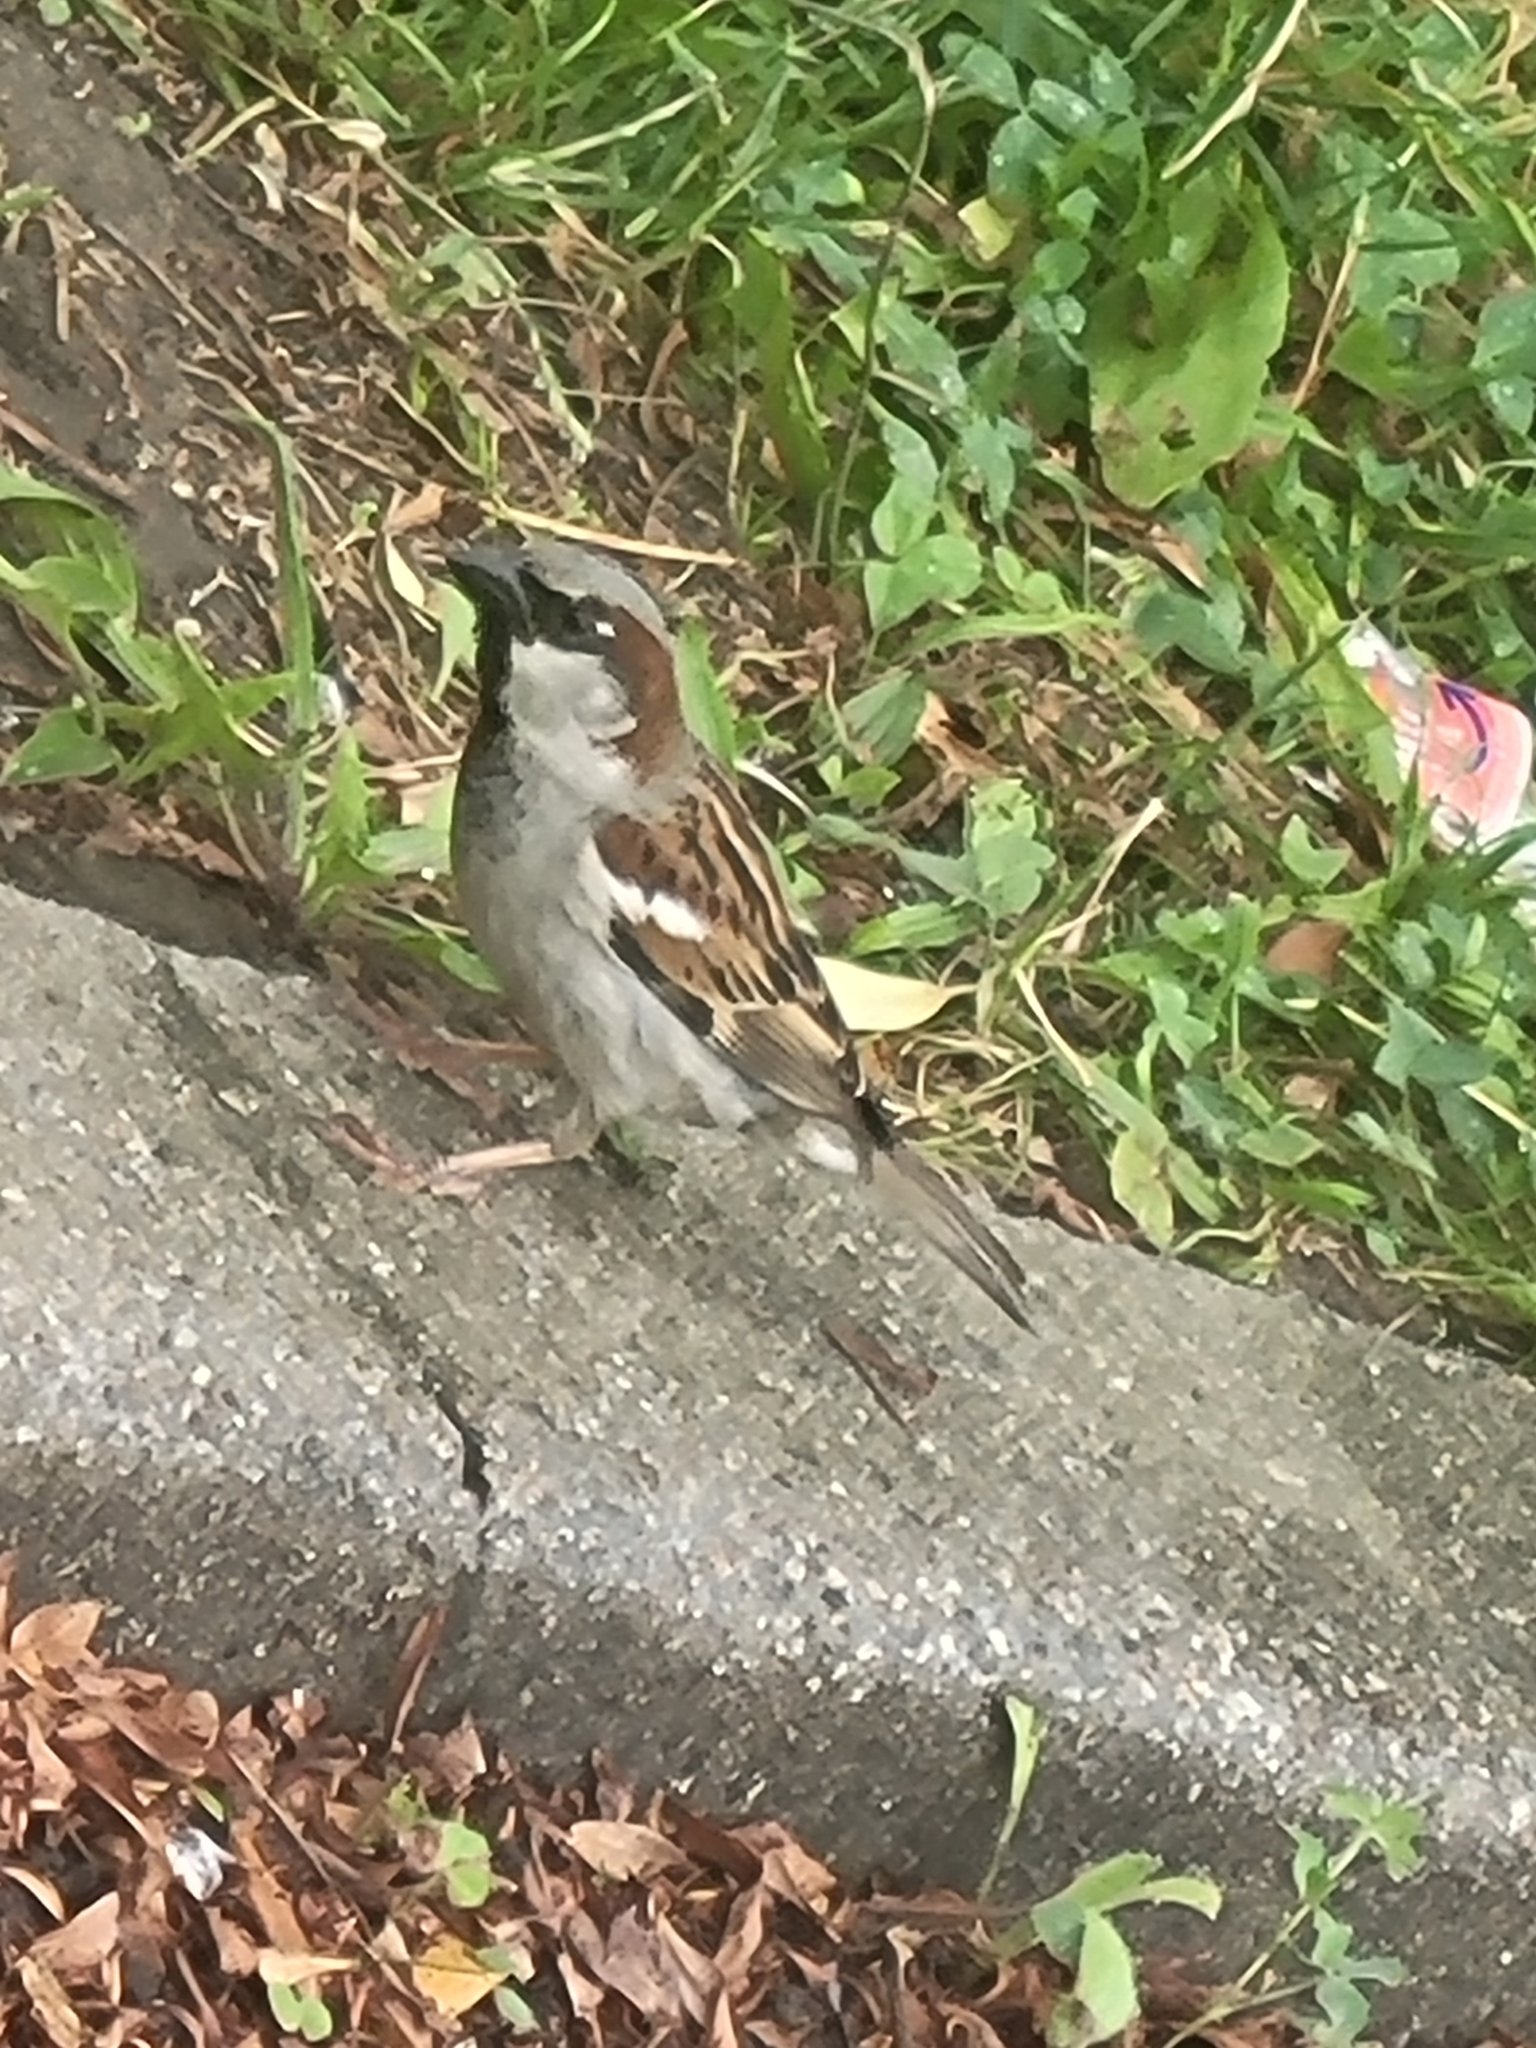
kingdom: Animalia
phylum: Chordata
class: Aves
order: Passeriformes
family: Passeridae
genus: Passer
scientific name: Passer domesticus
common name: House sparrow
